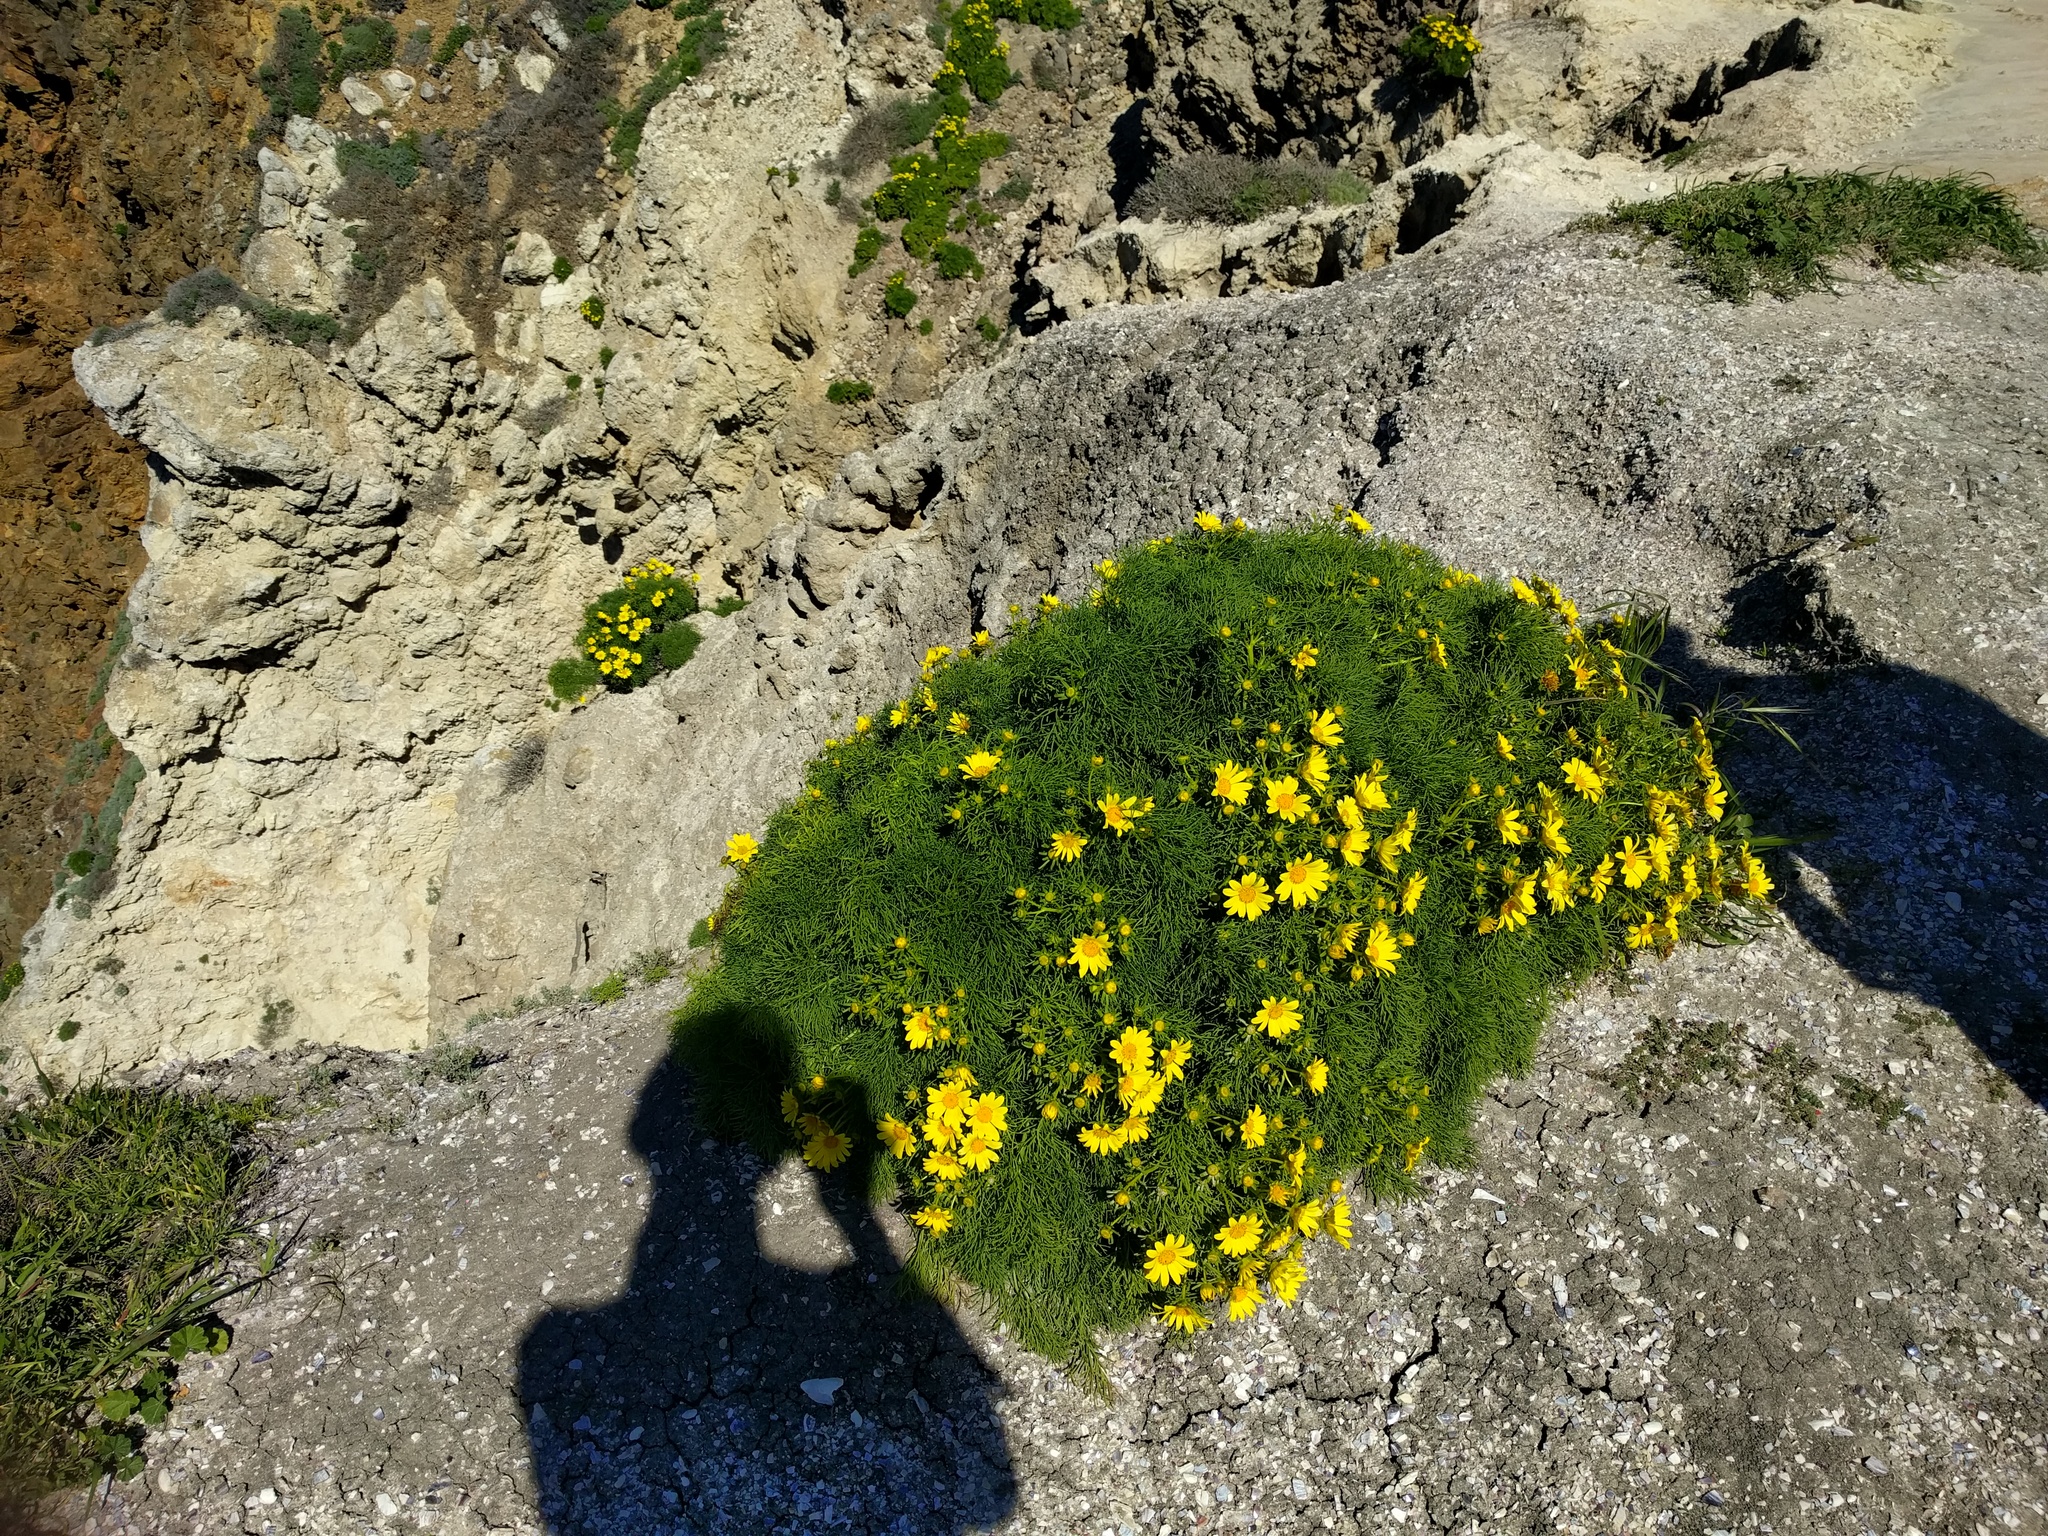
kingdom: Plantae
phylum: Tracheophyta
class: Magnoliopsida
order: Asterales
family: Asteraceae
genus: Coreopsis
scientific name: Coreopsis gigantea
